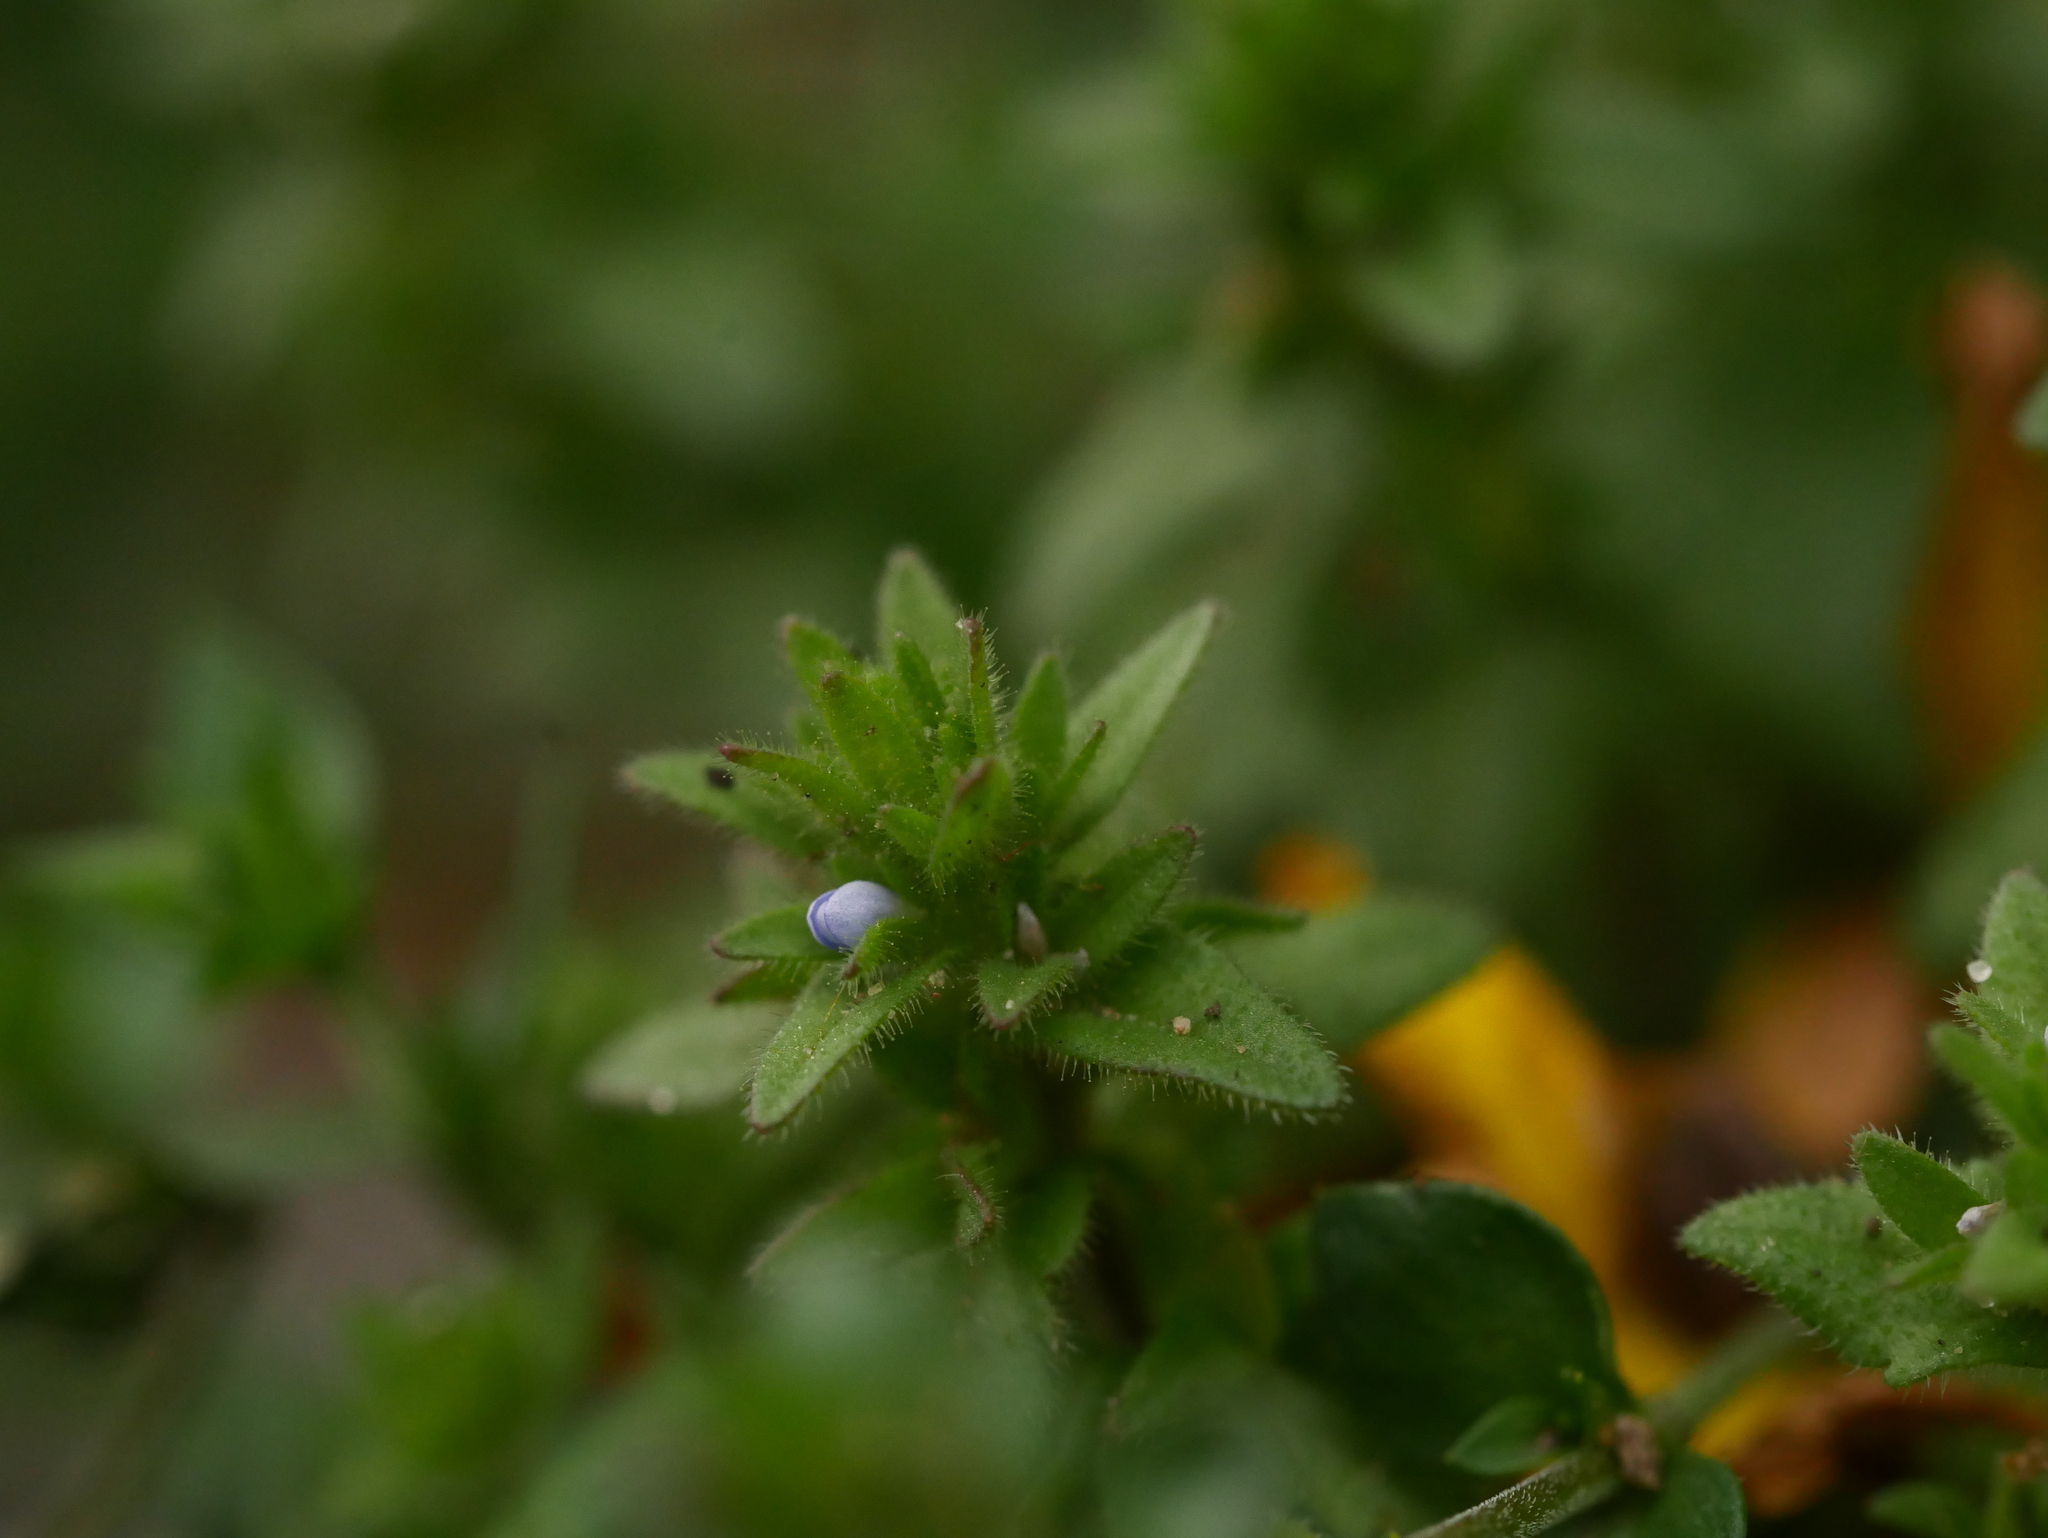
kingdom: Plantae
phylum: Tracheophyta
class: Magnoliopsida
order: Lamiales
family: Plantaginaceae
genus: Veronica
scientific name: Veronica arvensis
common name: Corn speedwell
